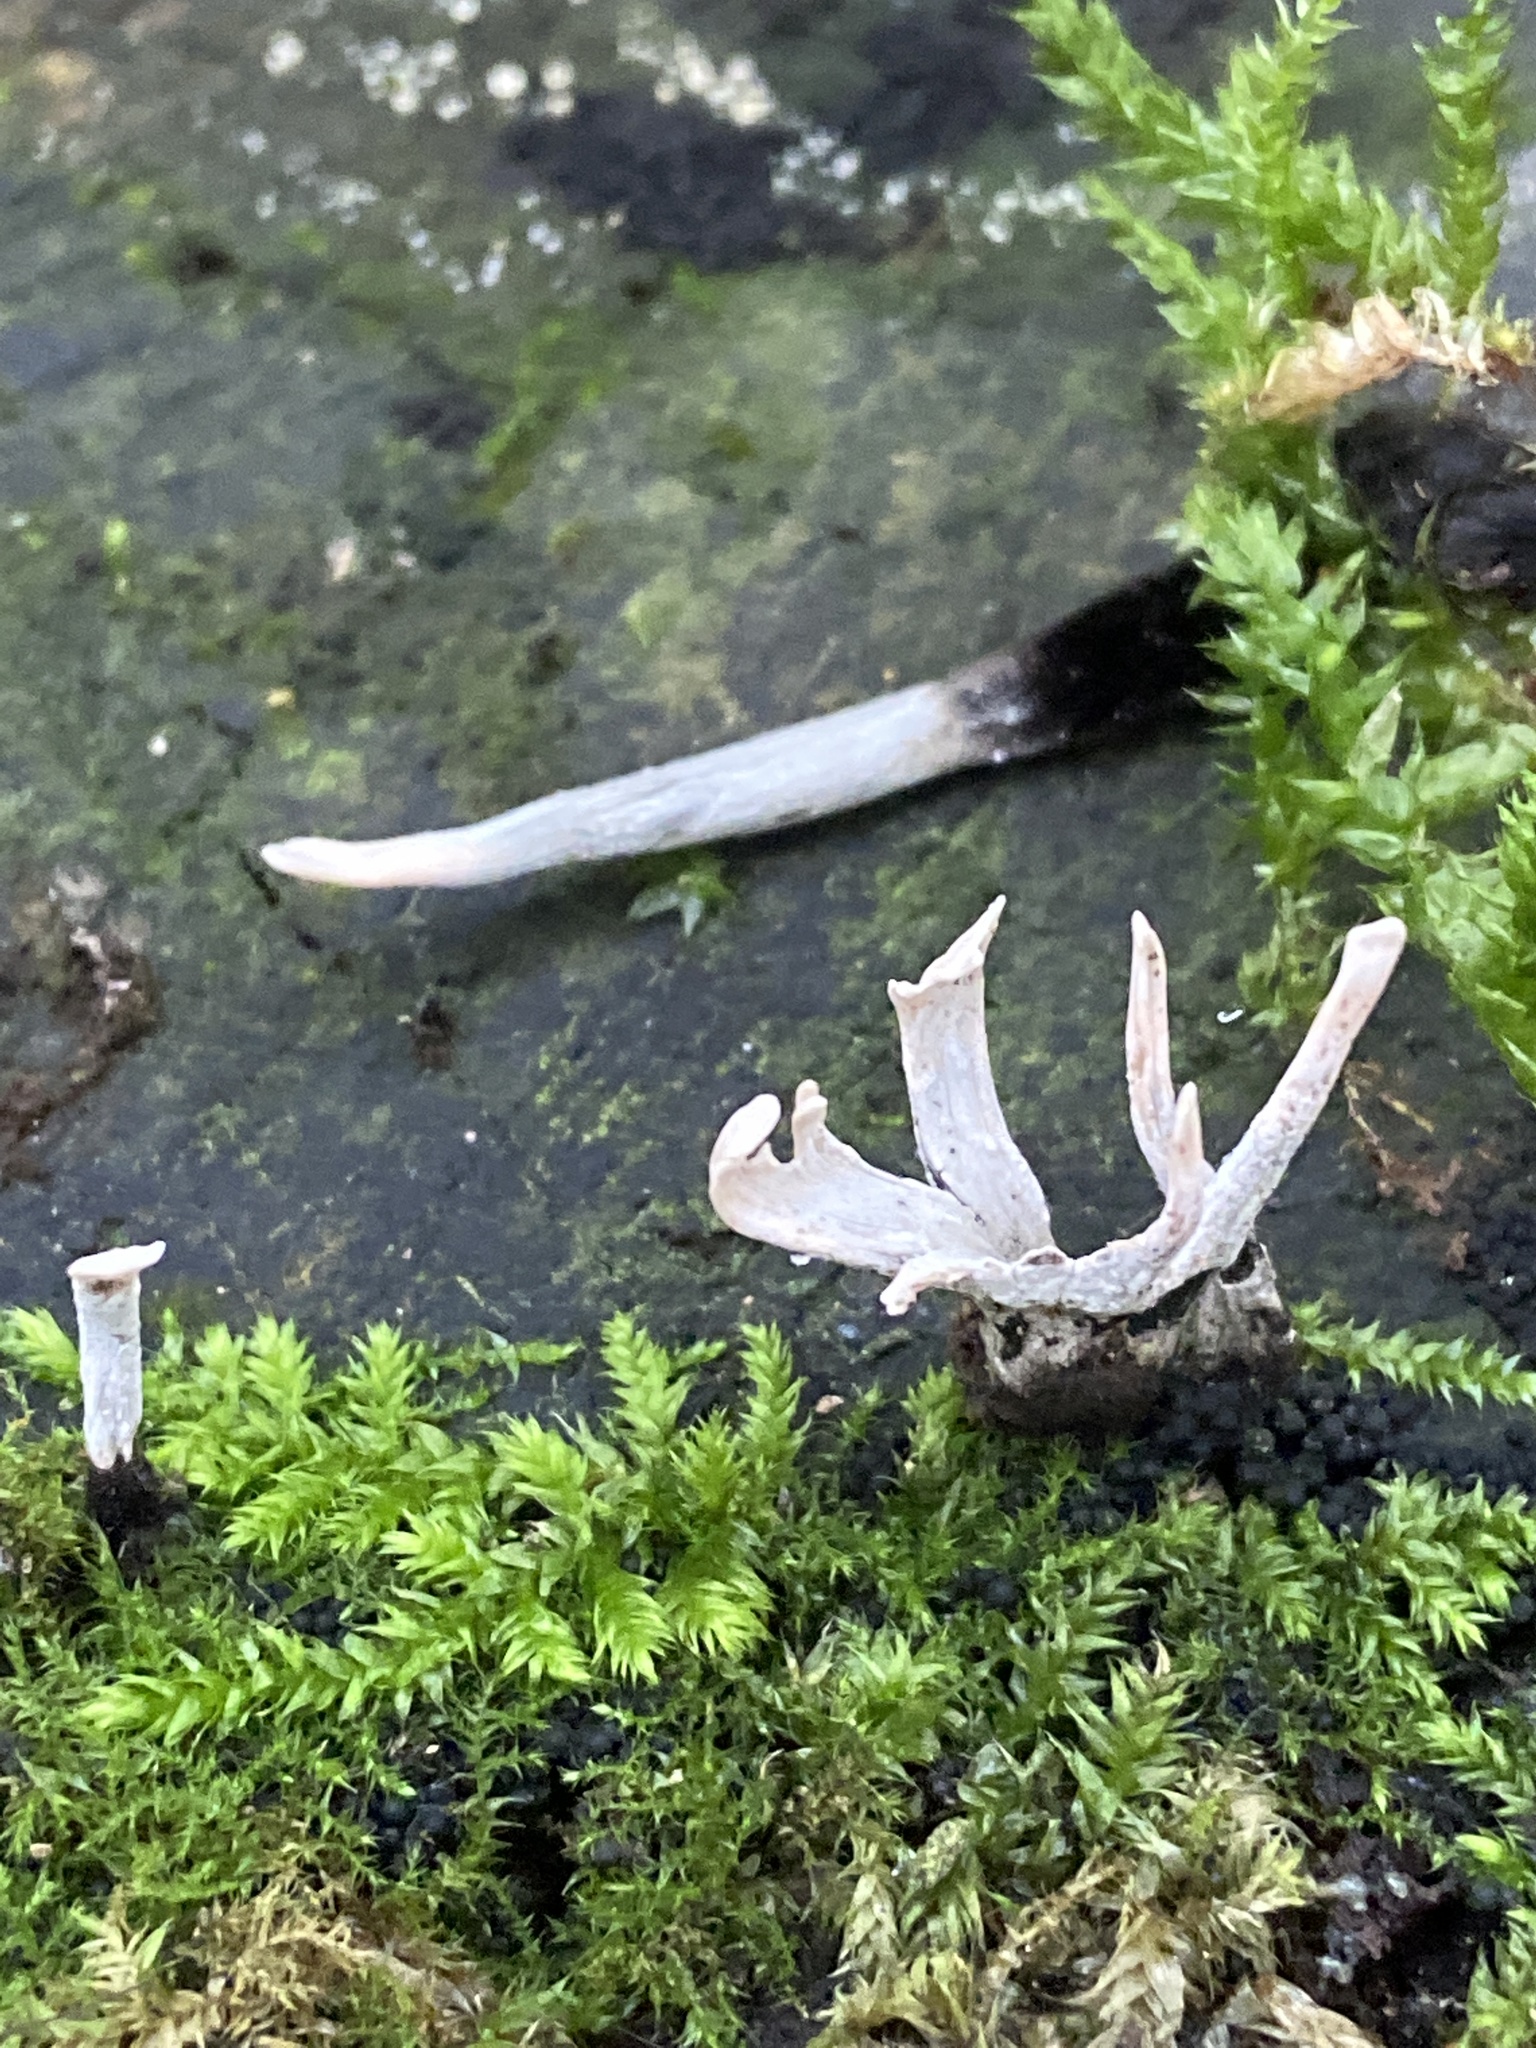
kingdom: Fungi
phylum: Ascomycota
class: Sordariomycetes
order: Xylariales
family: Xylariaceae
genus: Xylaria
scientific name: Xylaria hypoxylon
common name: Candle-snuff fungus
